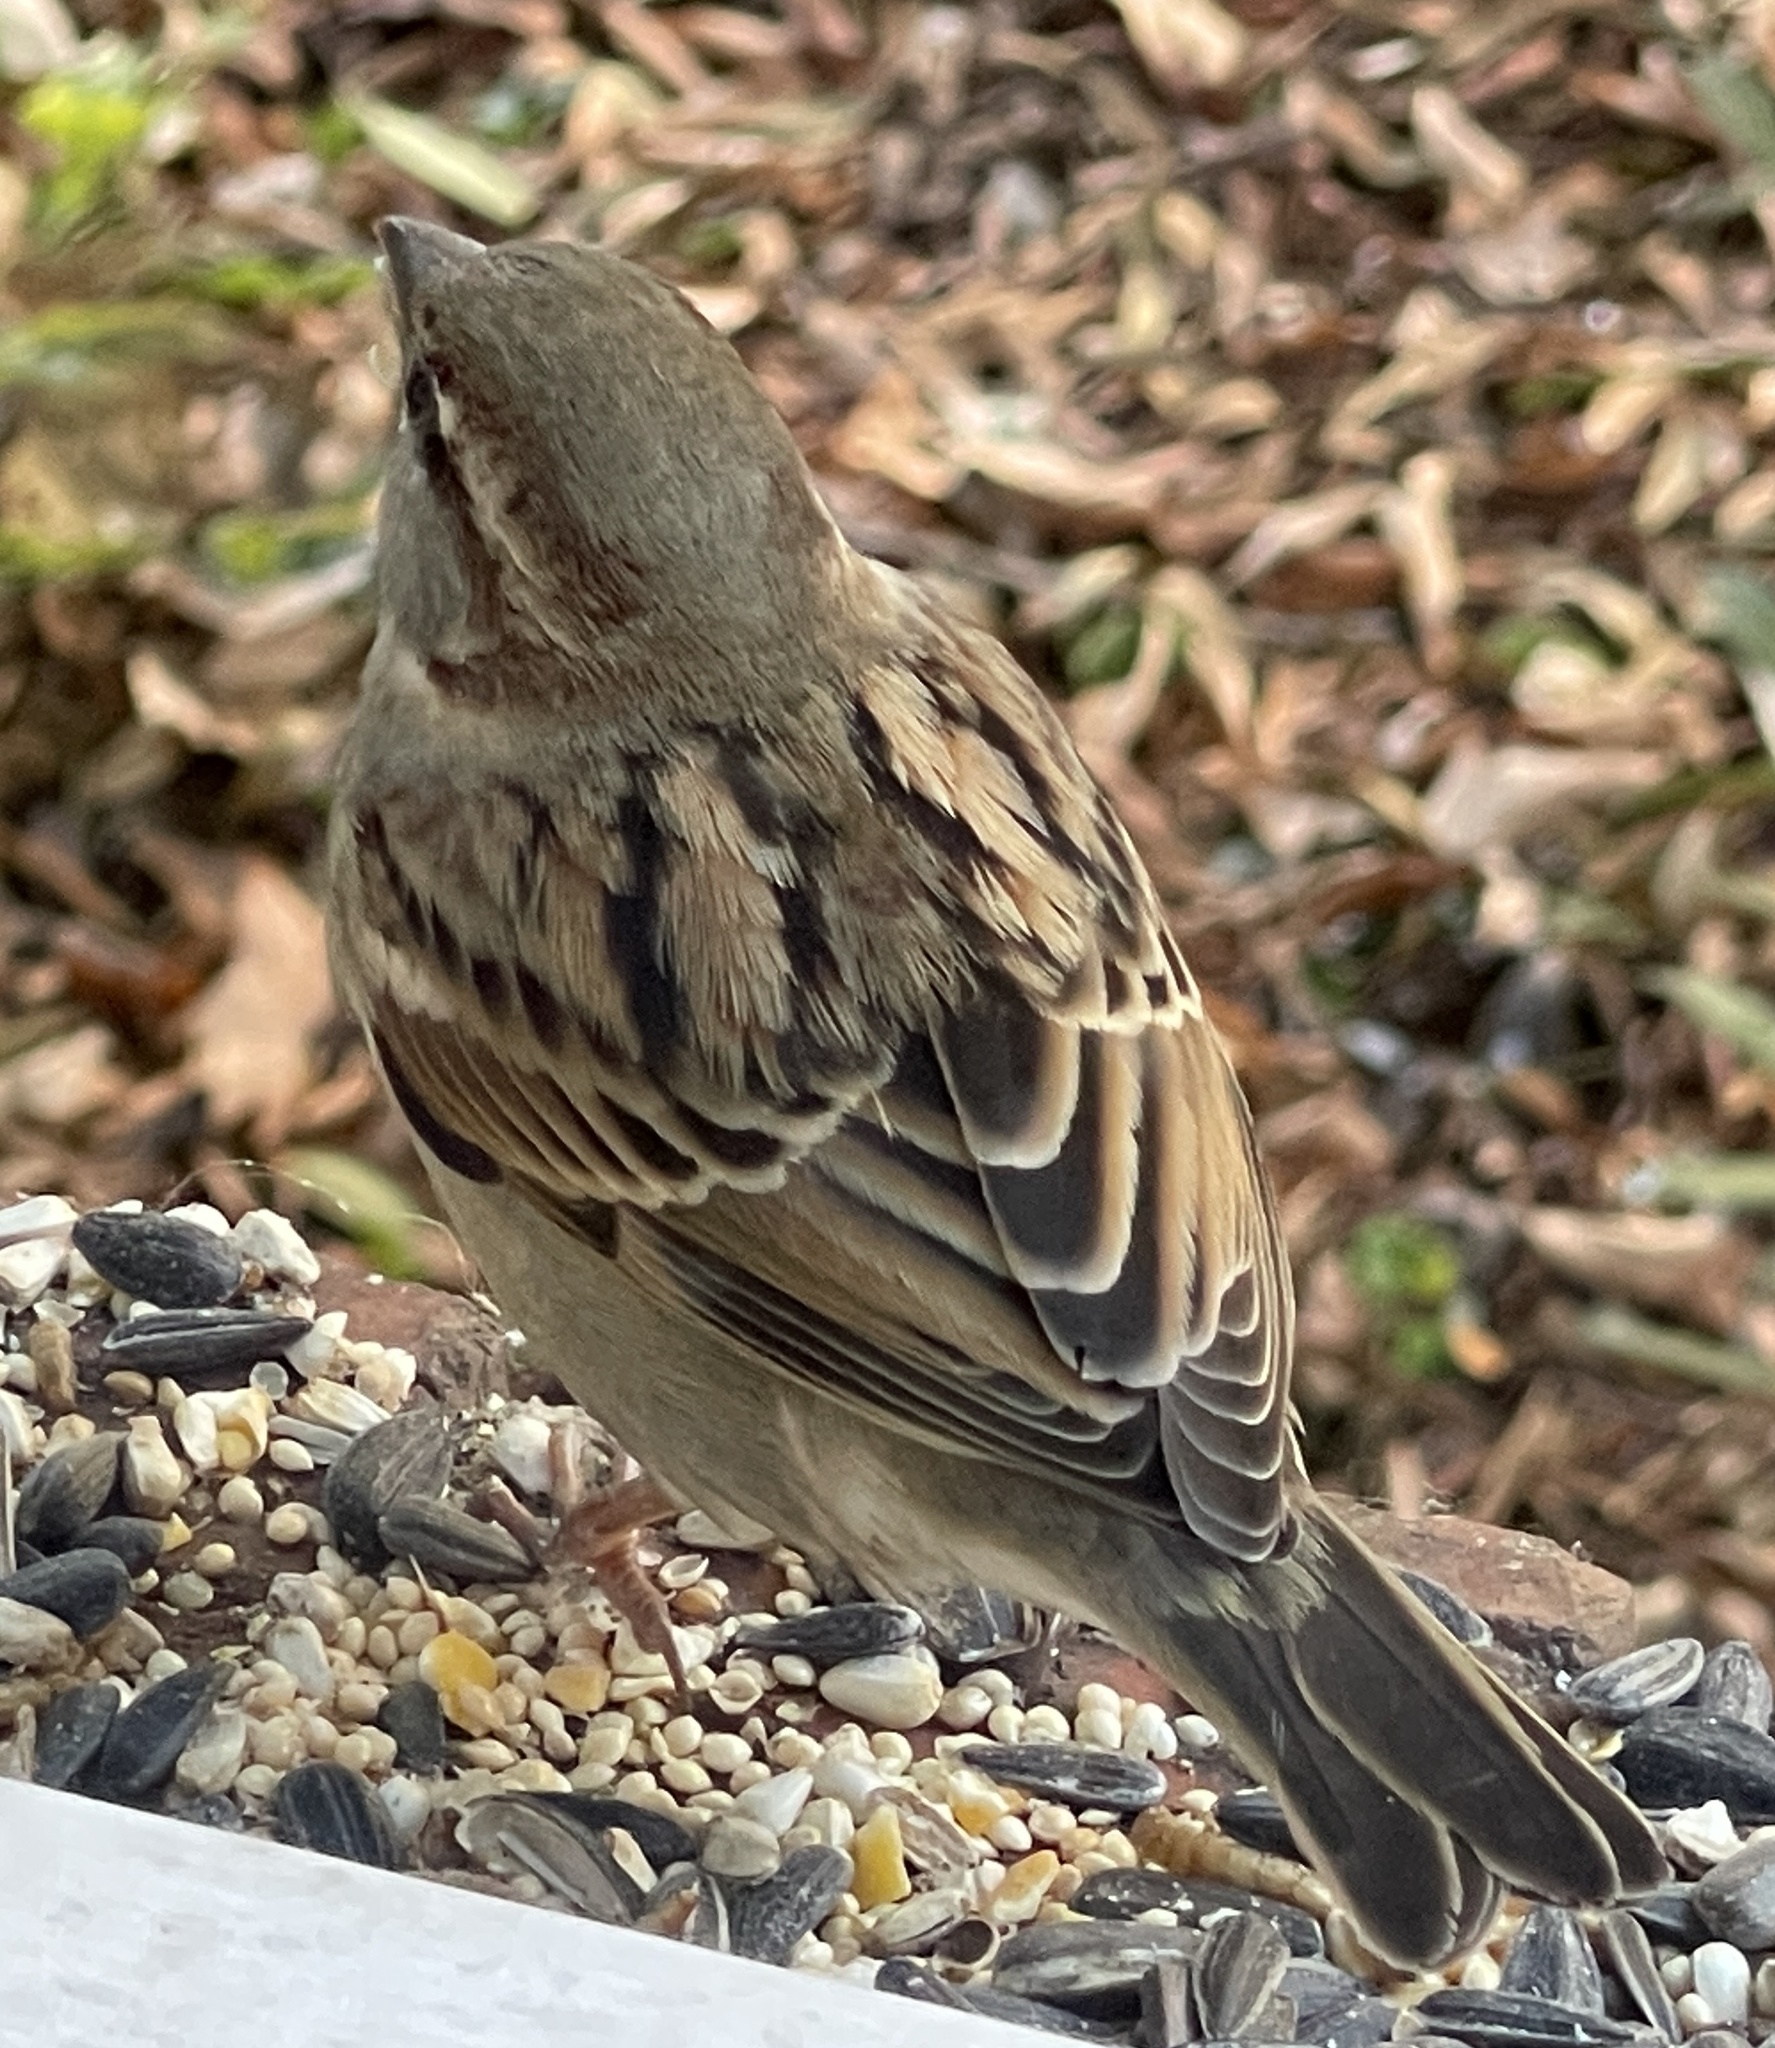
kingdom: Animalia
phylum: Chordata
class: Aves
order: Passeriformes
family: Passeridae
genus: Passer
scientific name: Passer domesticus
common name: House sparrow
